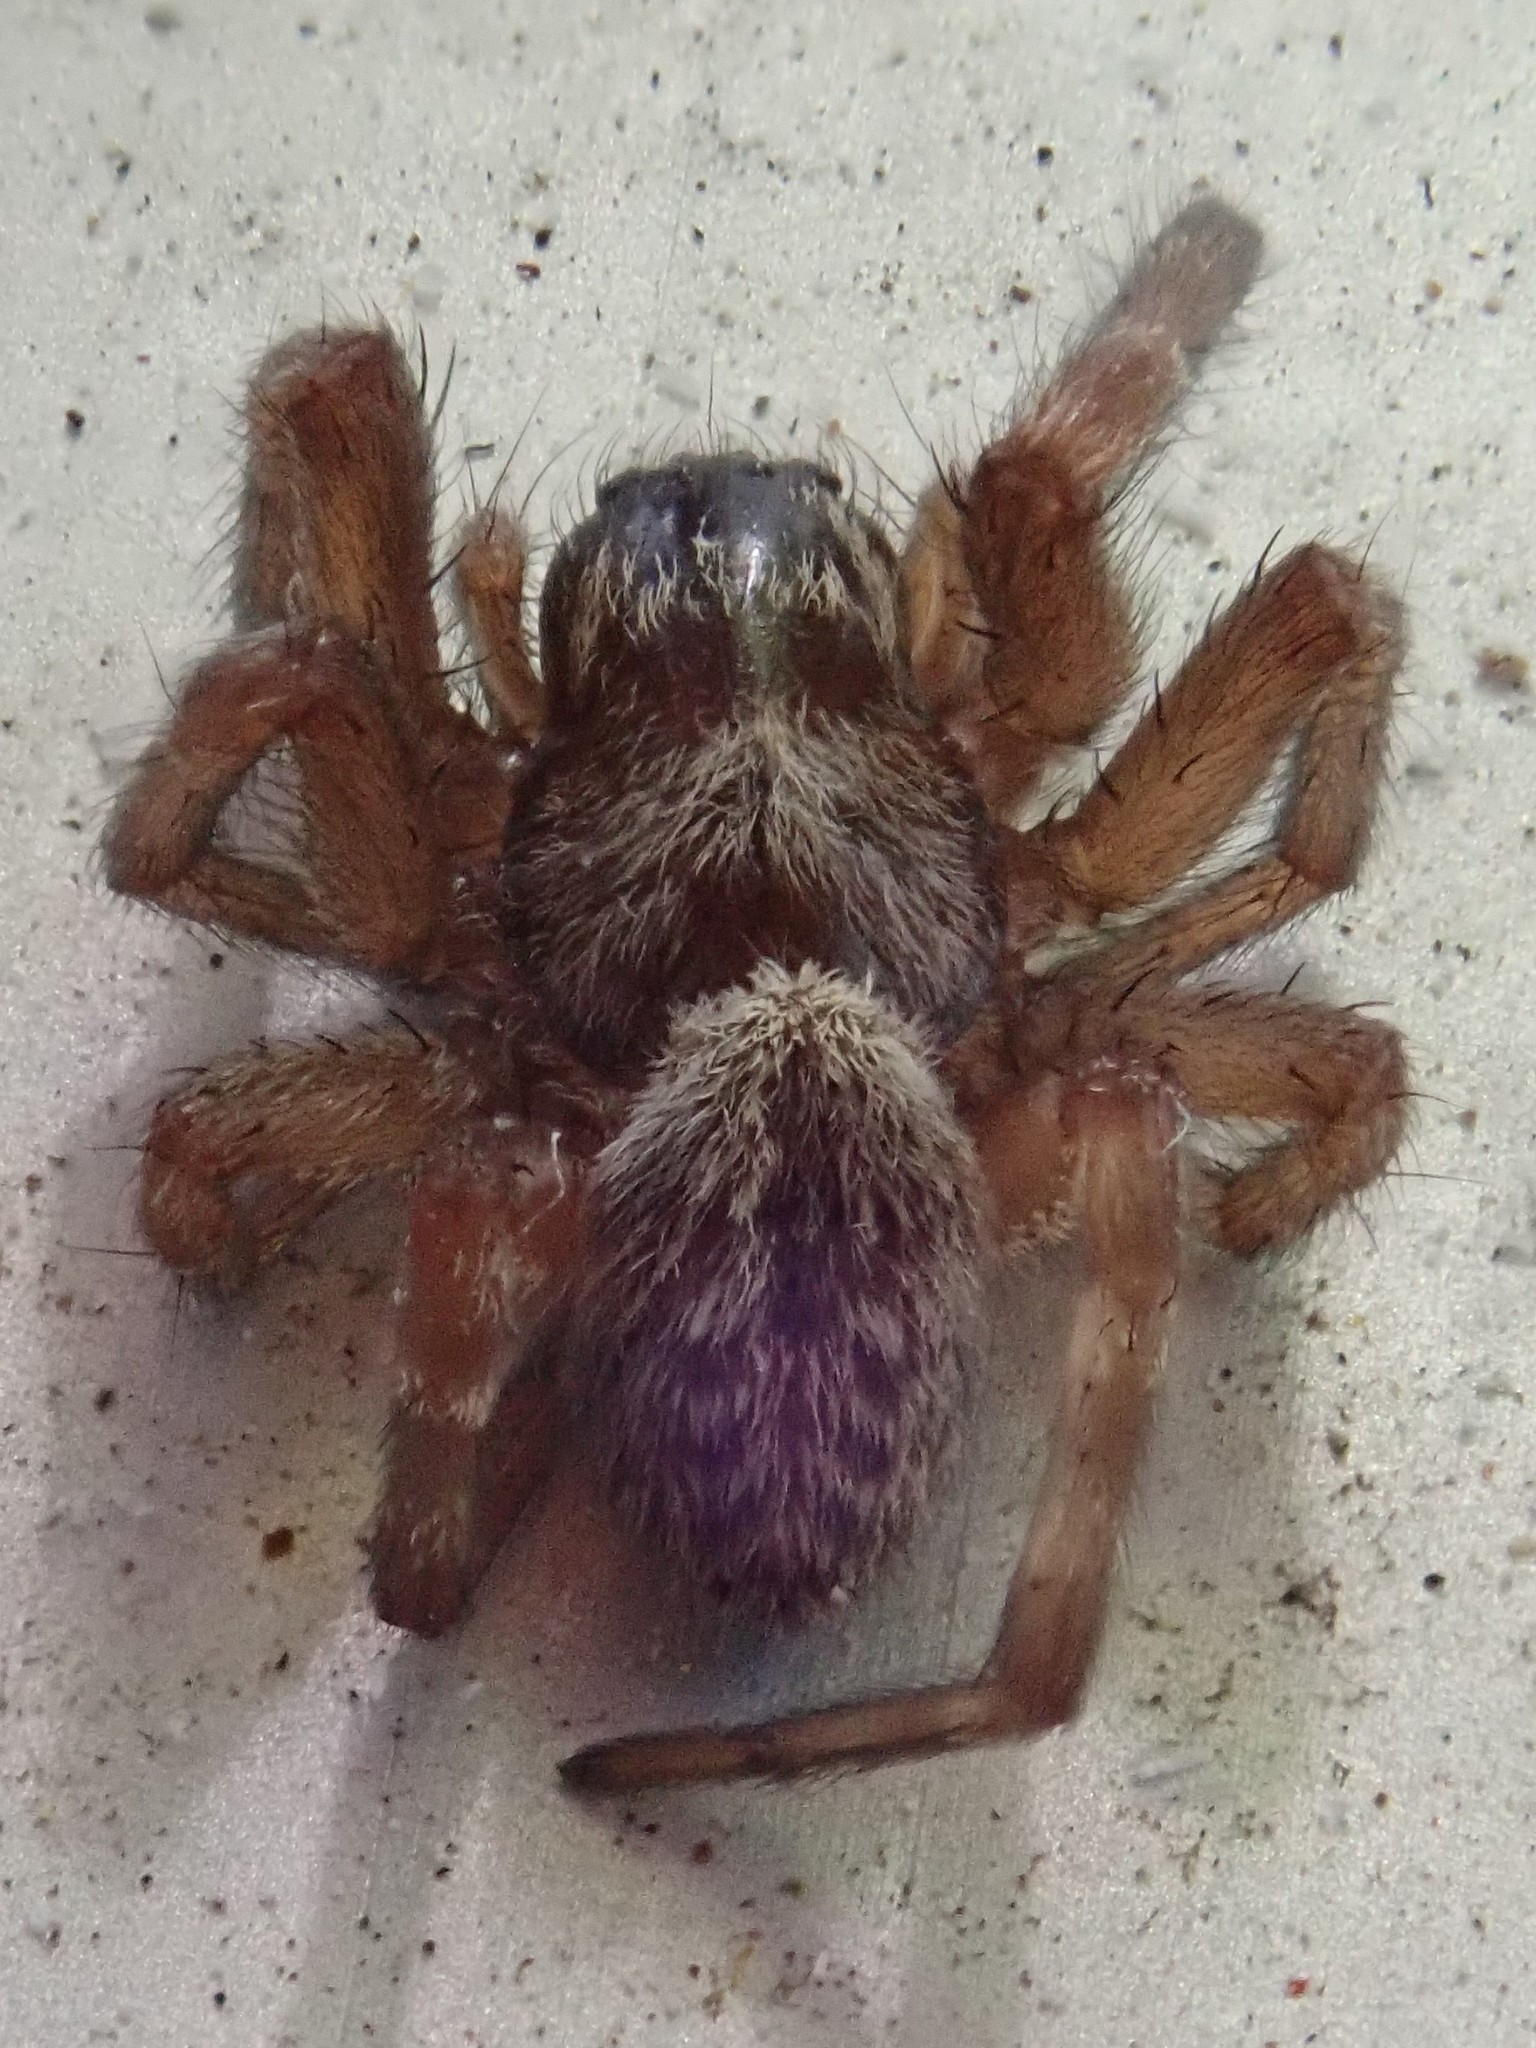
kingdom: Animalia
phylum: Arthropoda
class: Arachnida
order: Araneae
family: Desidae
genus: Badumna
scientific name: Badumna longinqua
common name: Gray house spider
